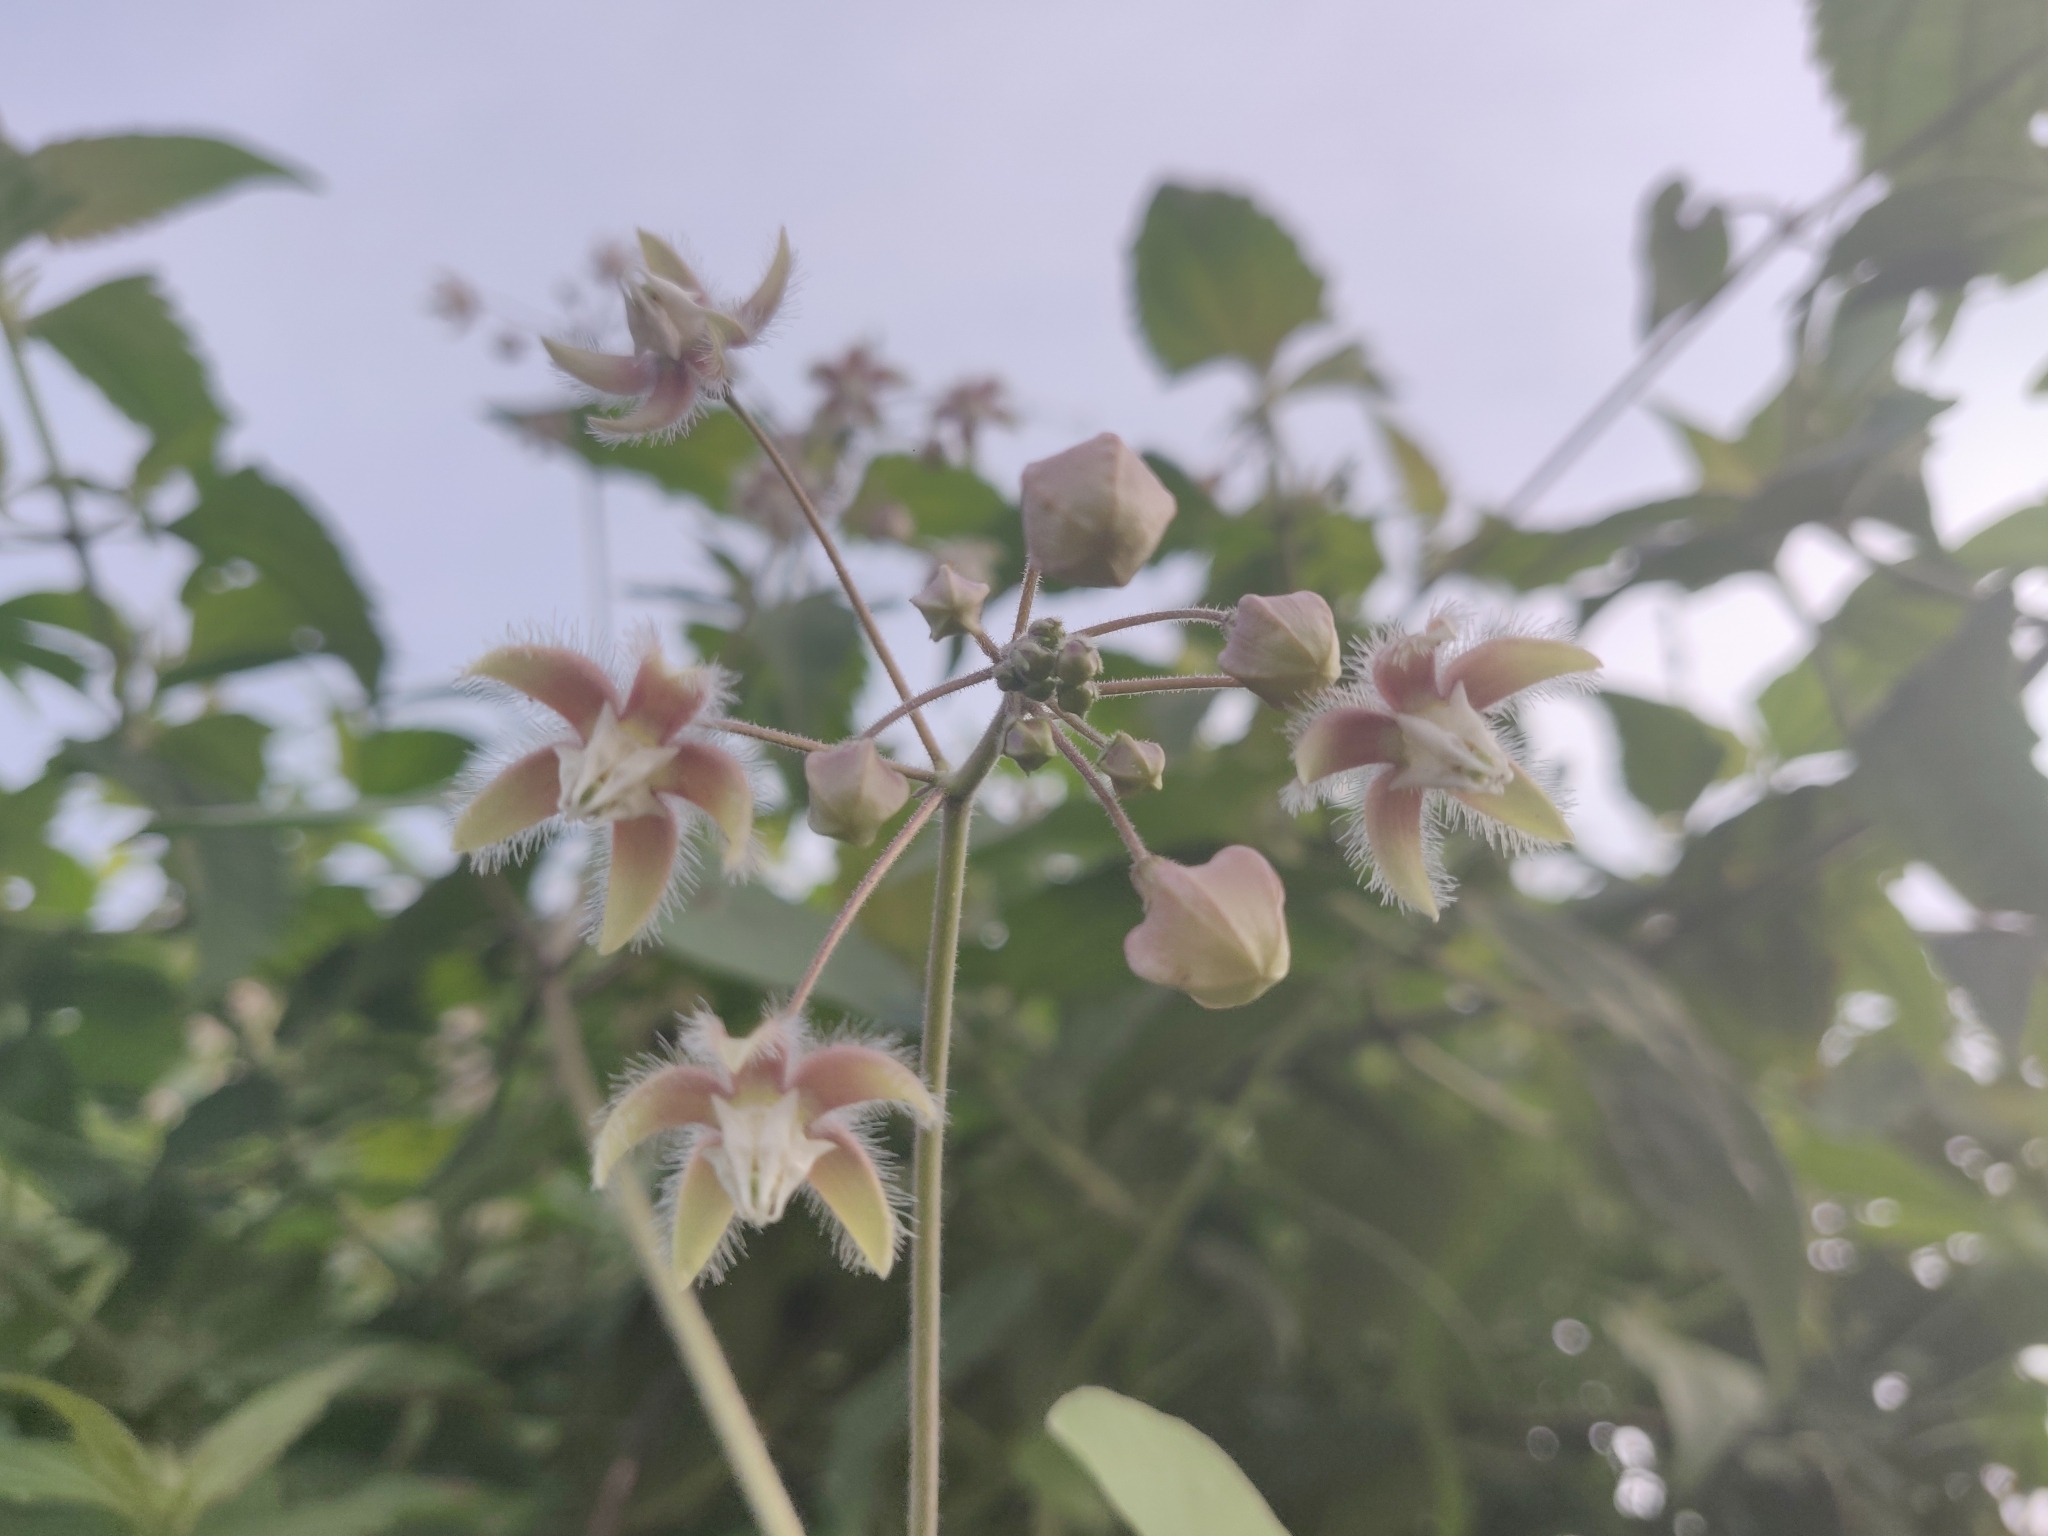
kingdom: Plantae
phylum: Tracheophyta
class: Magnoliopsida
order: Gentianales
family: Apocynaceae
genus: Pergularia
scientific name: Pergularia daemia
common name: Trellis-vine
